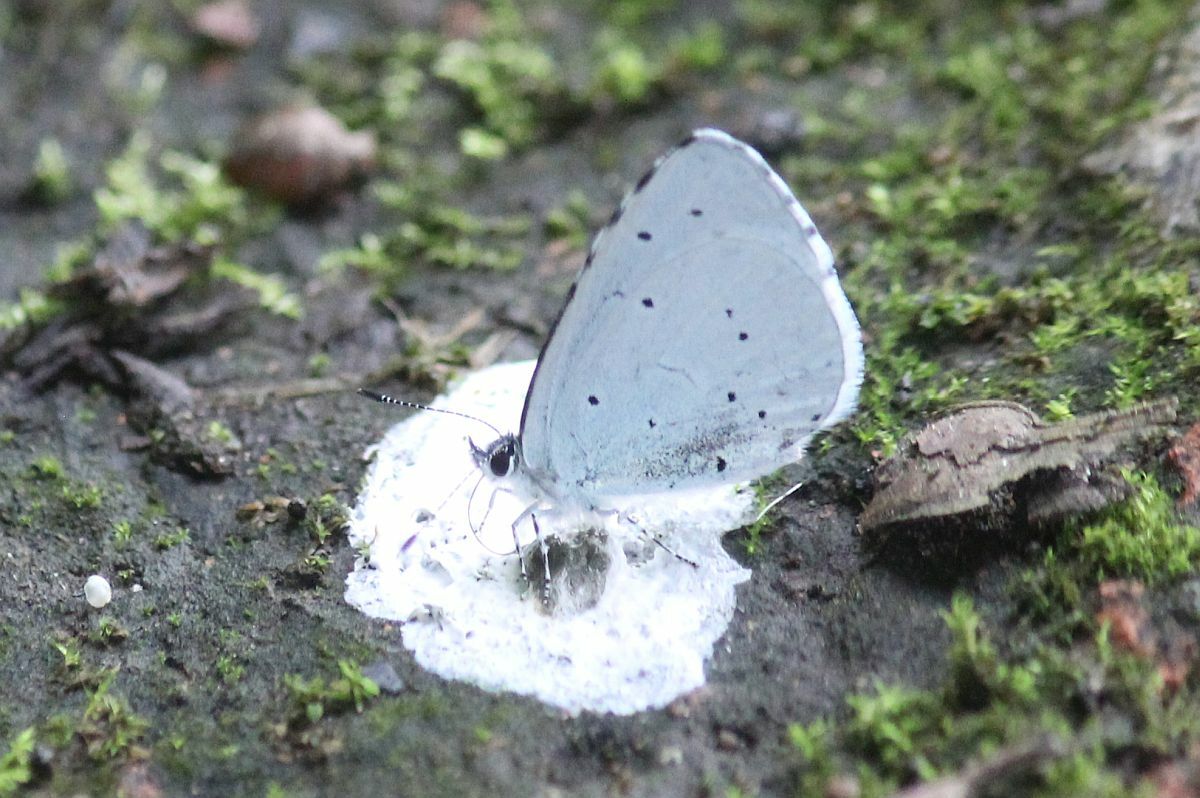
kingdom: Animalia
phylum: Arthropoda
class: Insecta
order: Lepidoptera
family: Lycaenidae
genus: Celastrina
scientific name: Celastrina argiolus
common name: Holly blue
